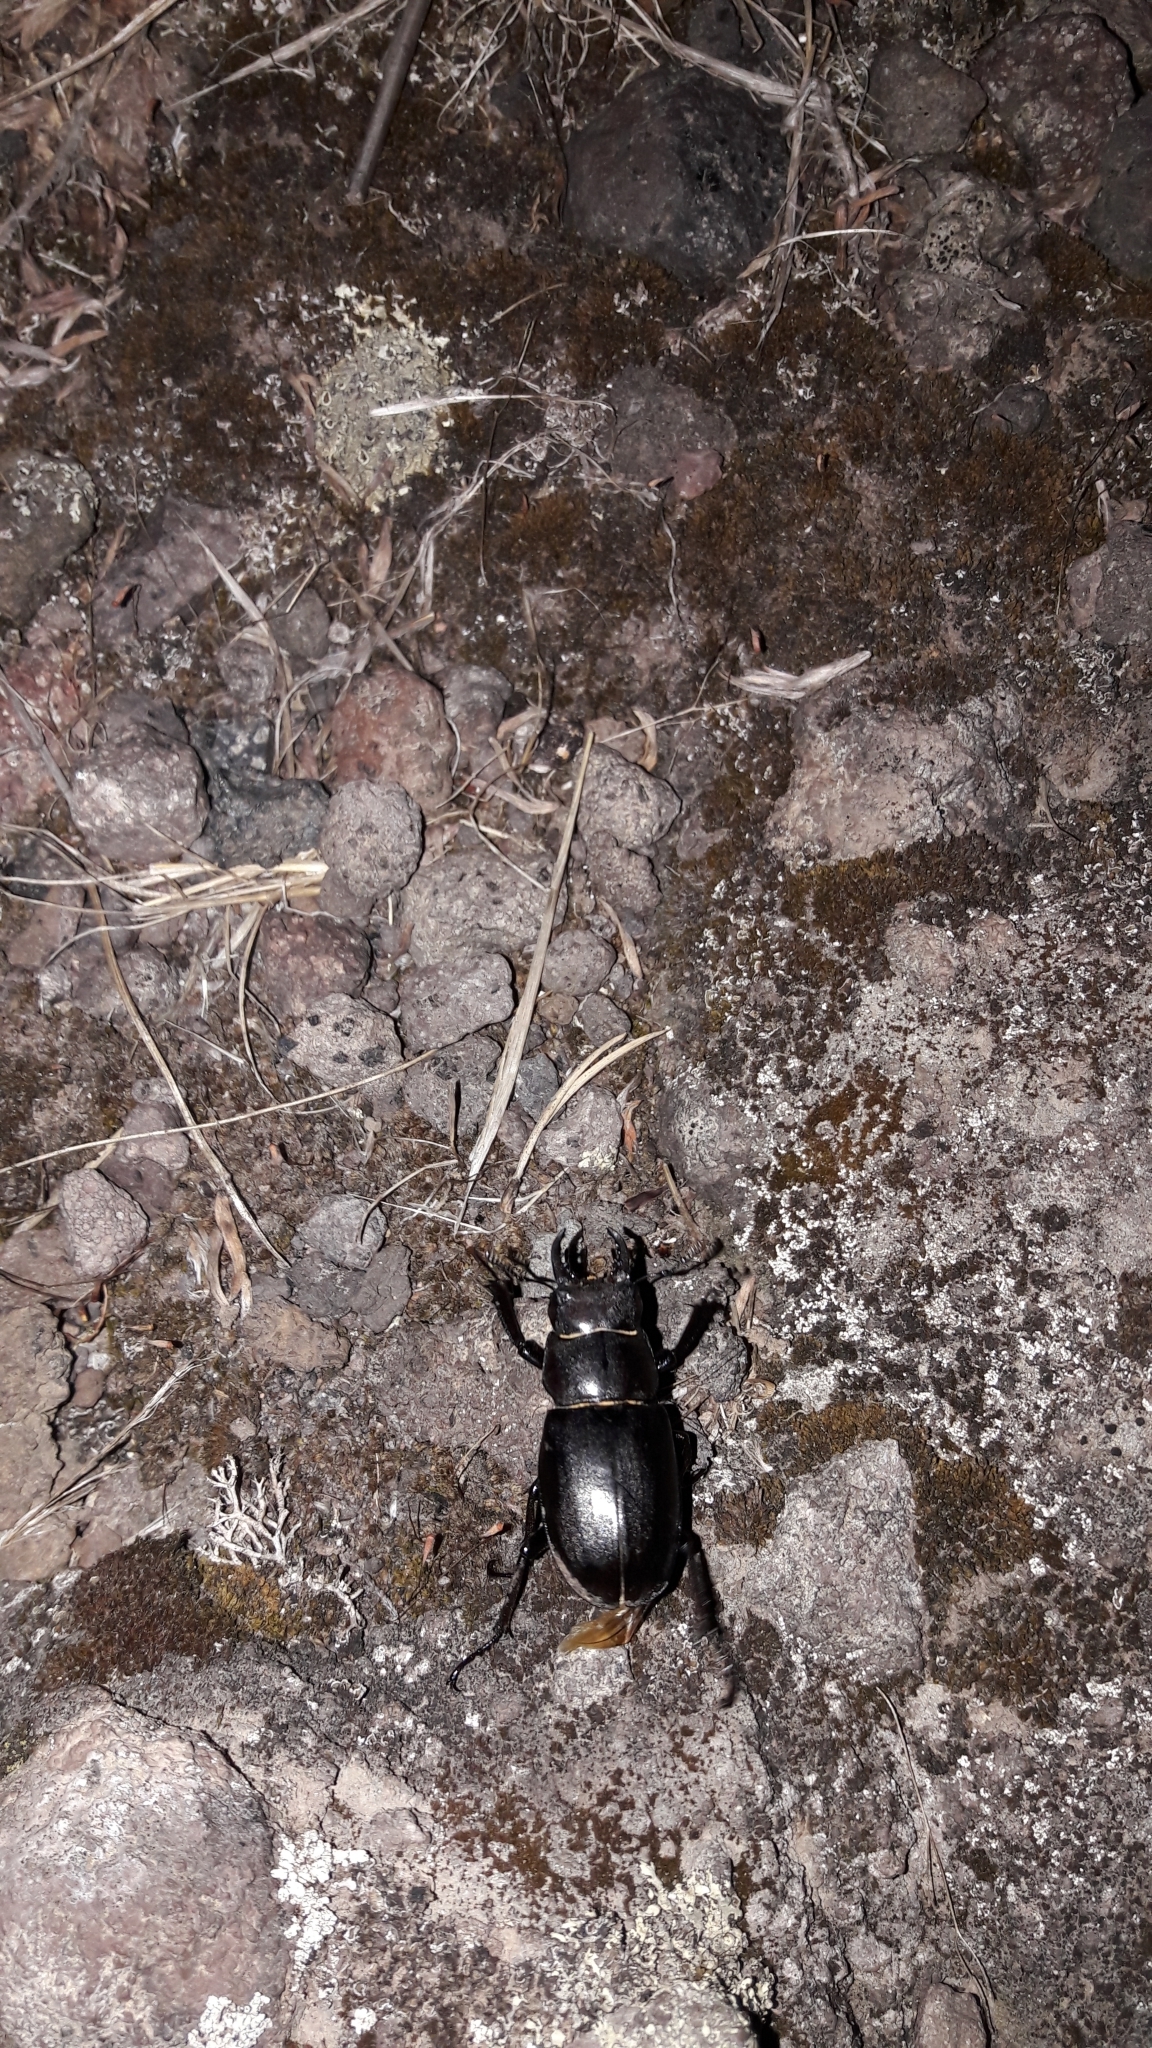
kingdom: Animalia
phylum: Arthropoda
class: Insecta
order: Coleoptera
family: Lucanidae
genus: Lucanus
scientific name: Lucanus tetraodon
